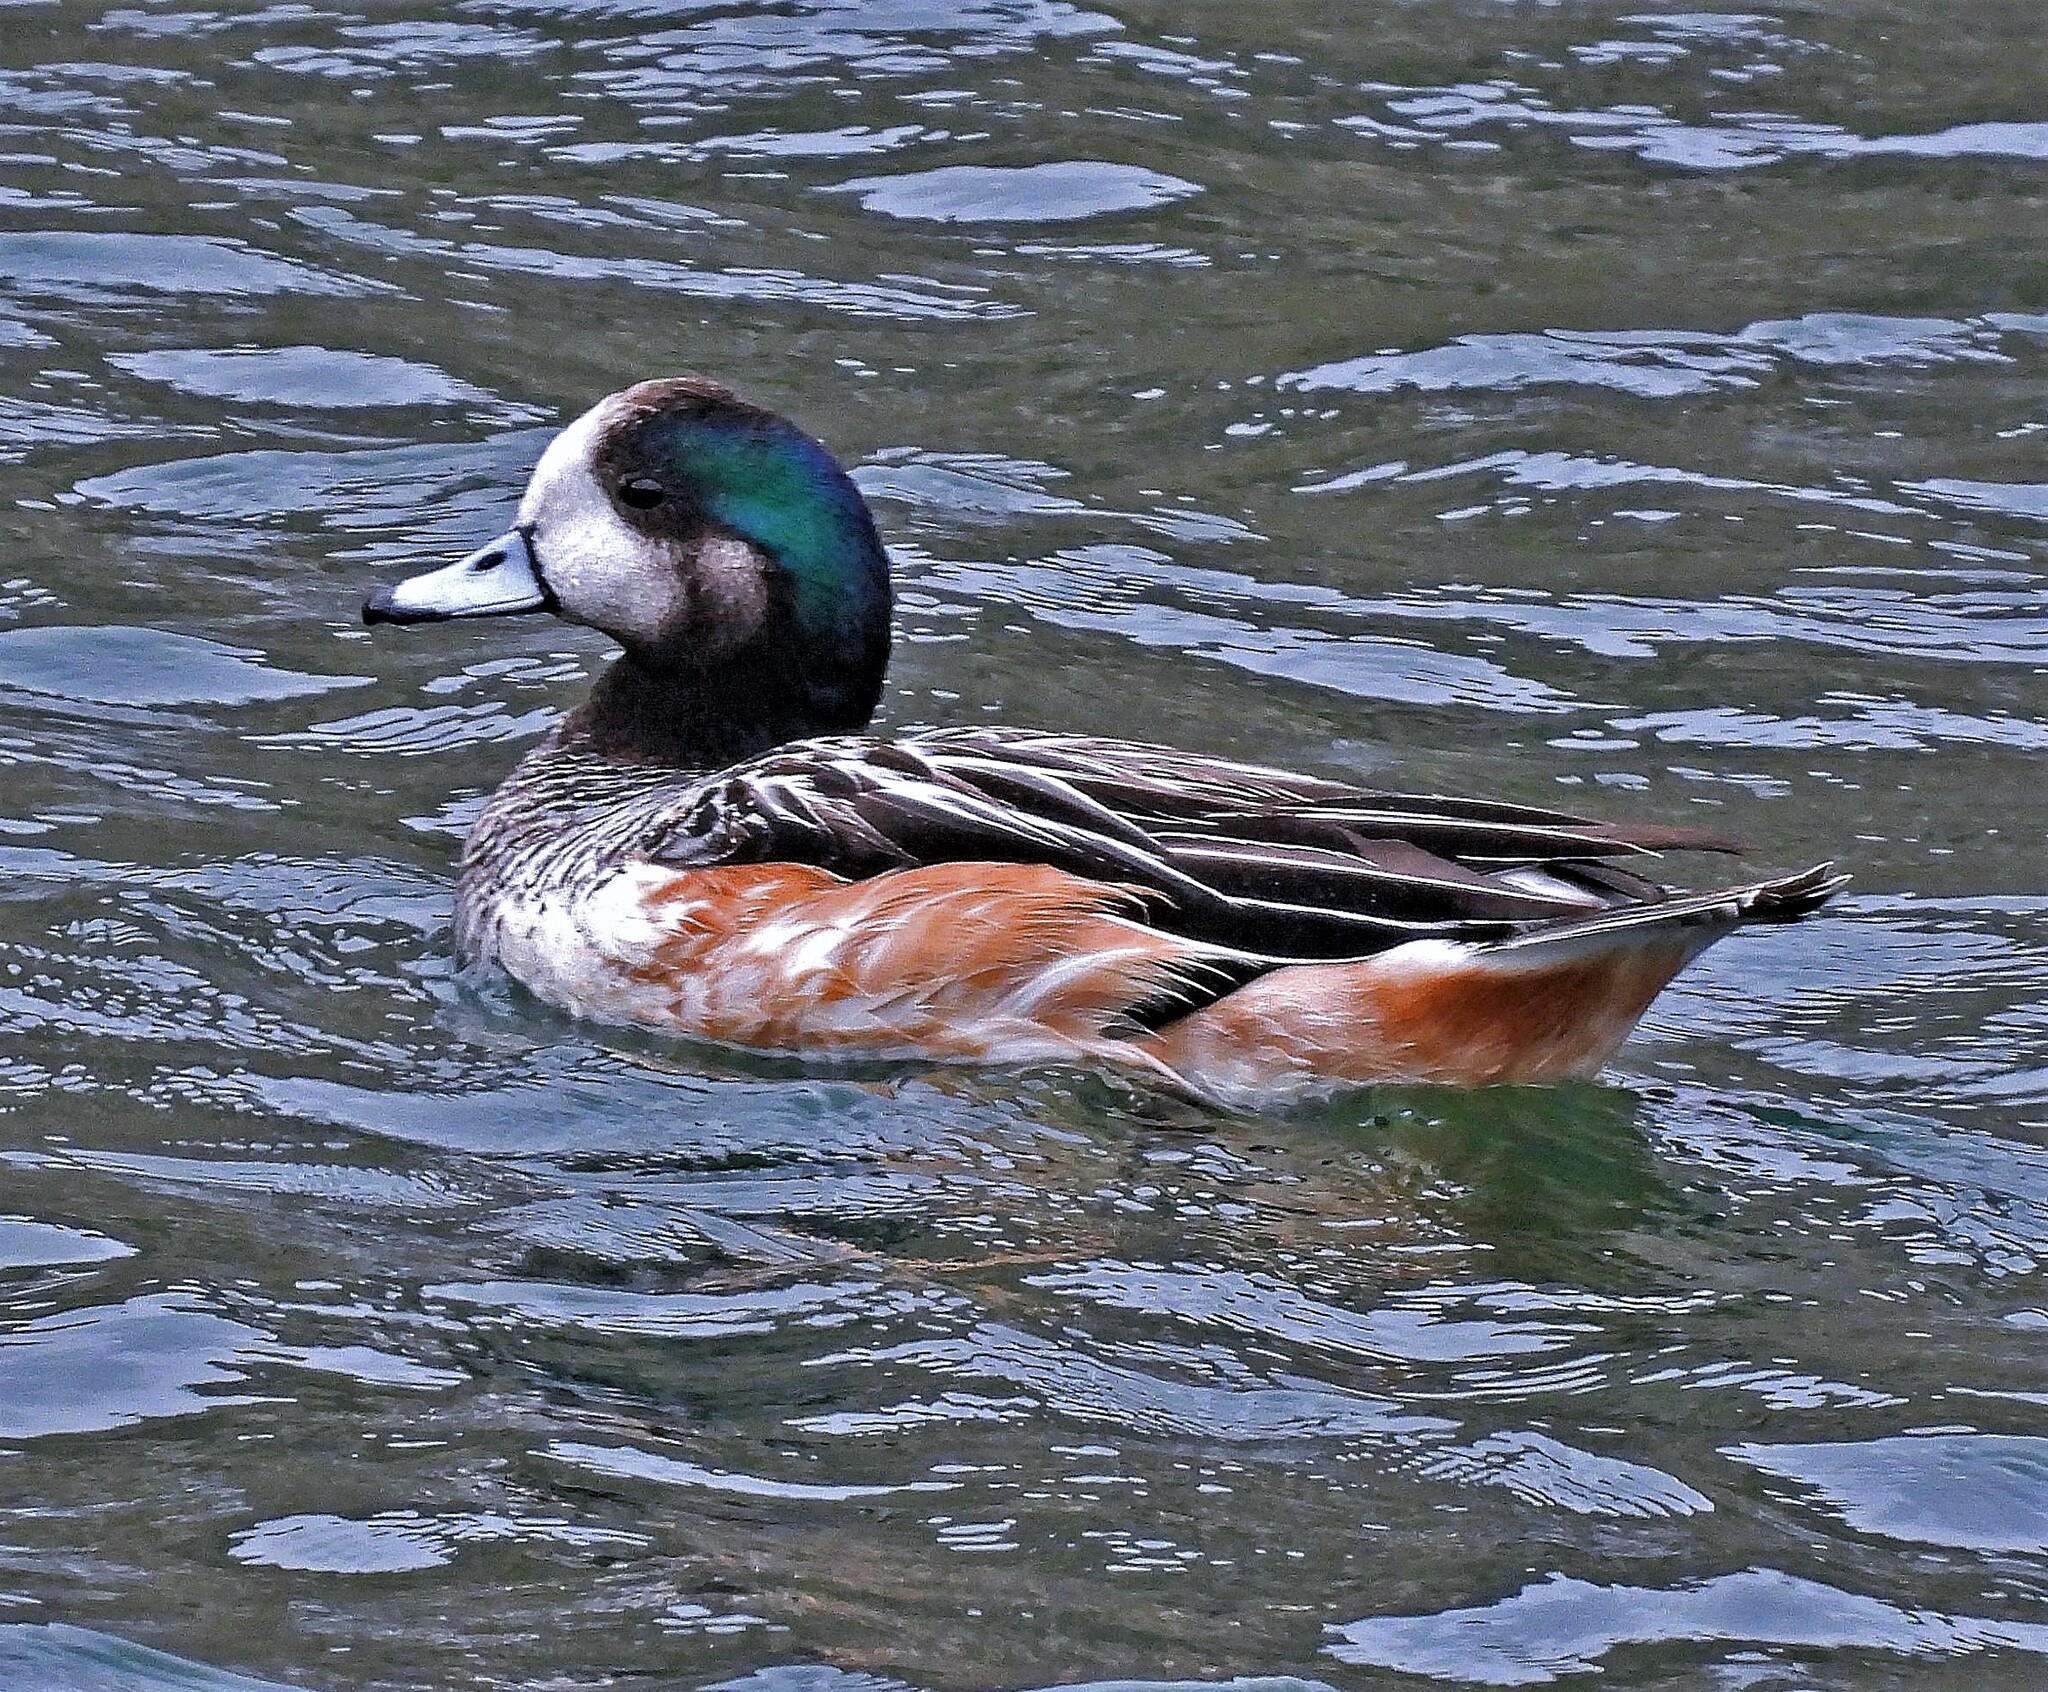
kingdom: Animalia
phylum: Chordata
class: Aves
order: Anseriformes
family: Anatidae
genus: Mareca
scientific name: Mareca sibilatrix
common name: Chiloe wigeon
